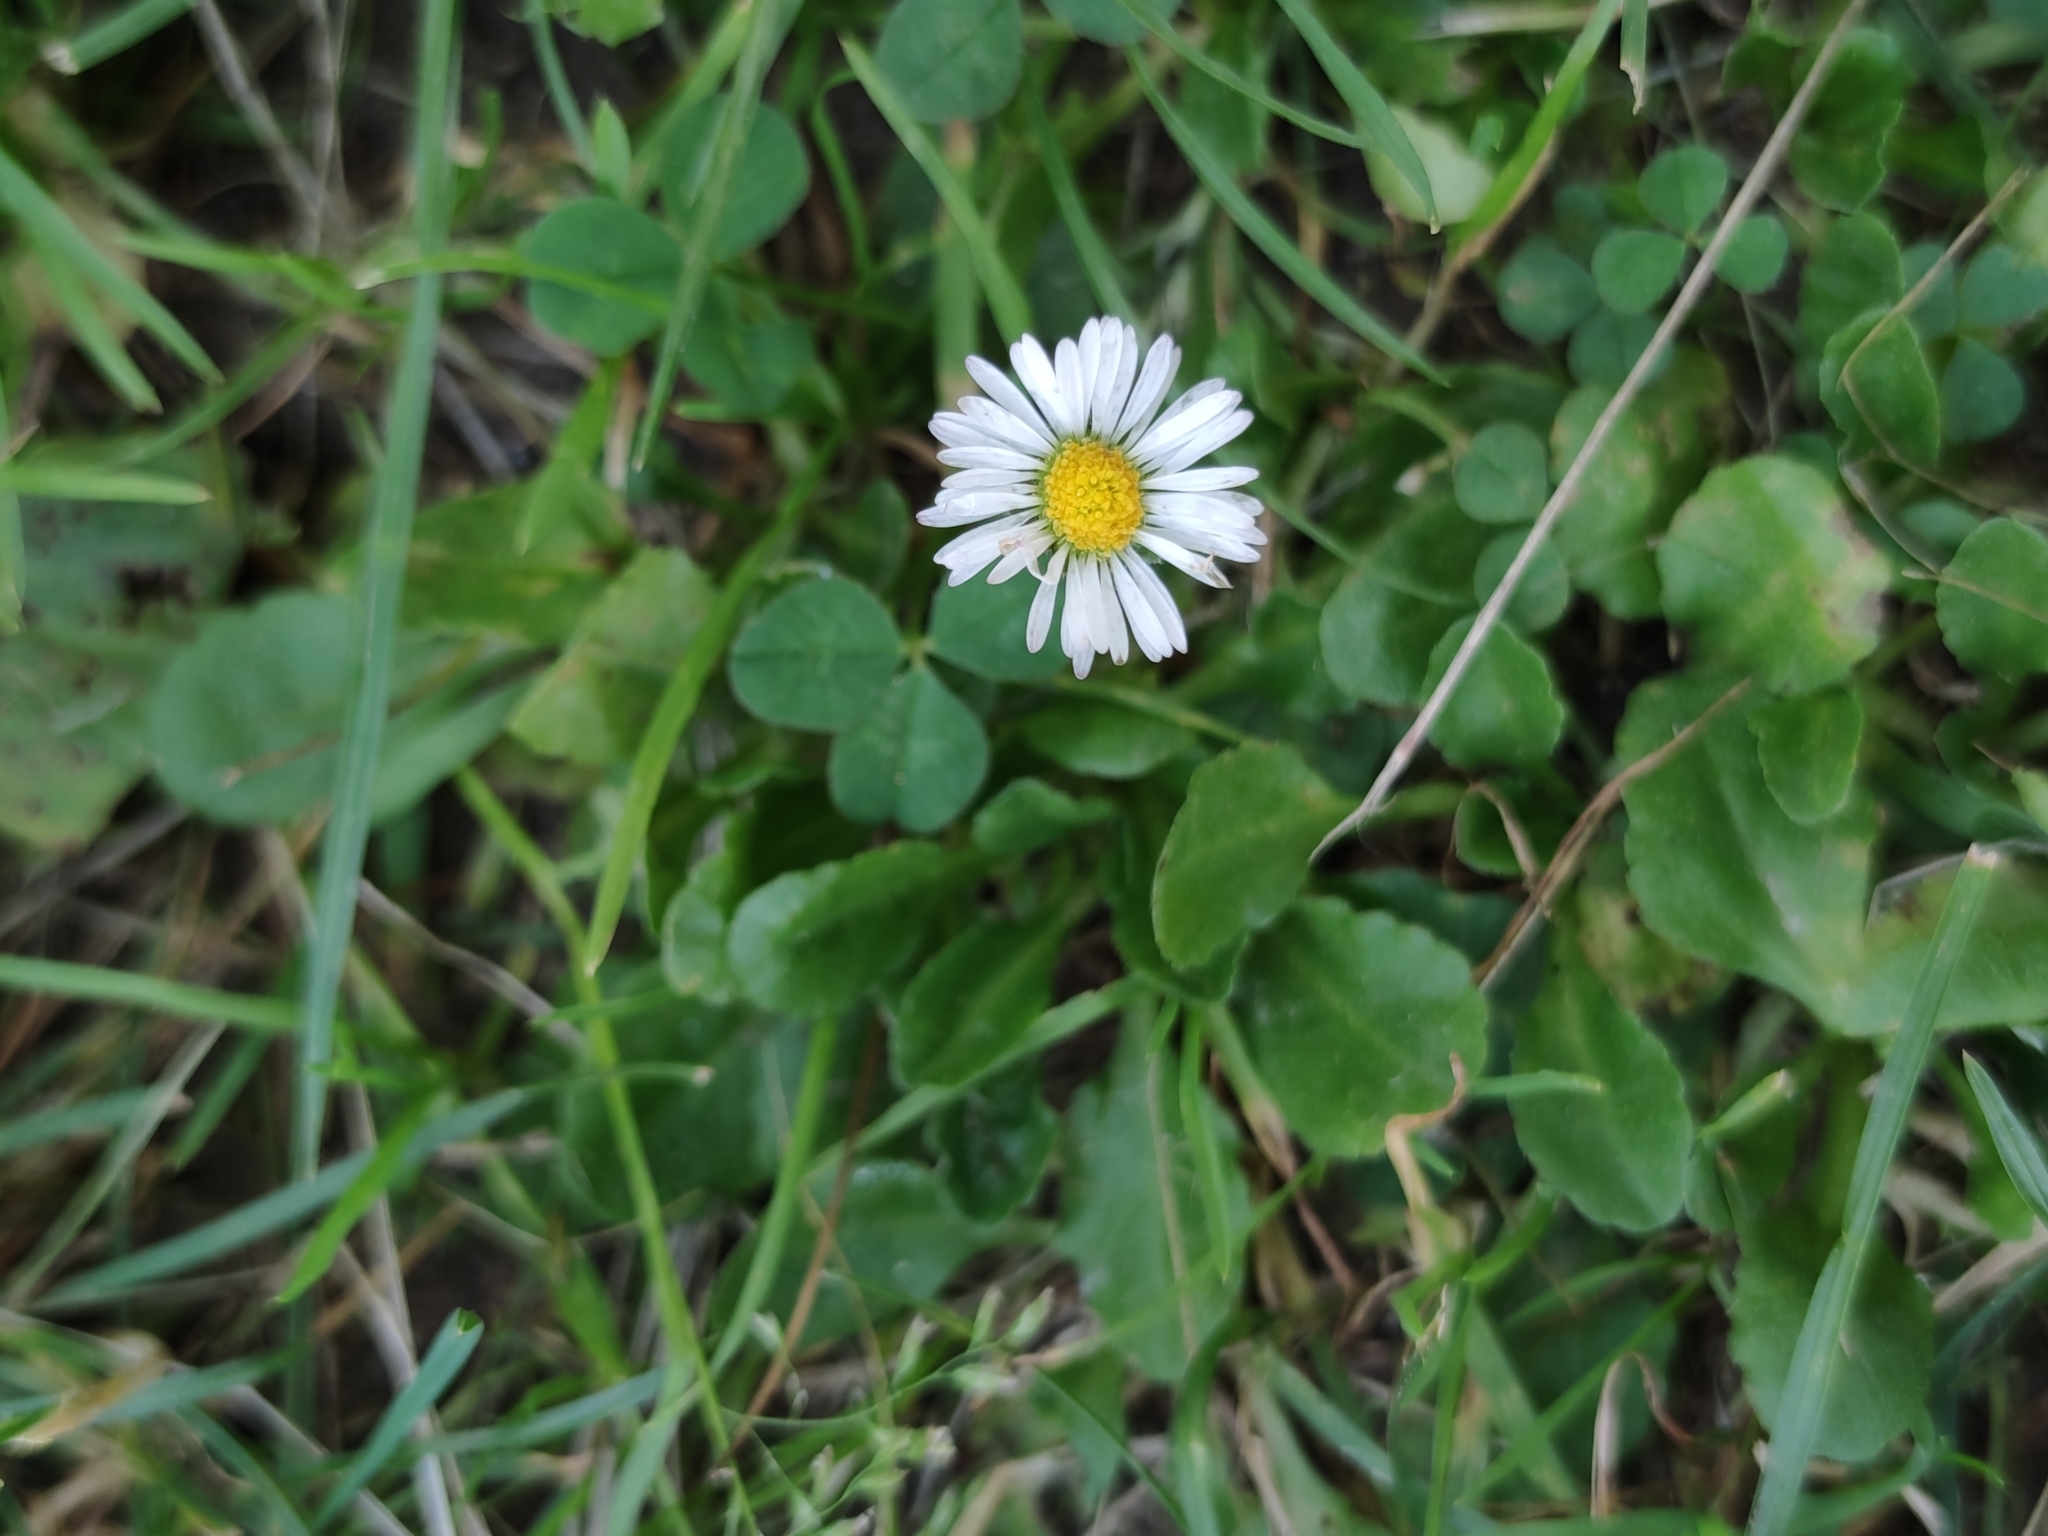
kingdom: Plantae
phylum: Tracheophyta
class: Magnoliopsida
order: Asterales
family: Asteraceae
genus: Bellis
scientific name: Bellis perennis
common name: Lawndaisy
